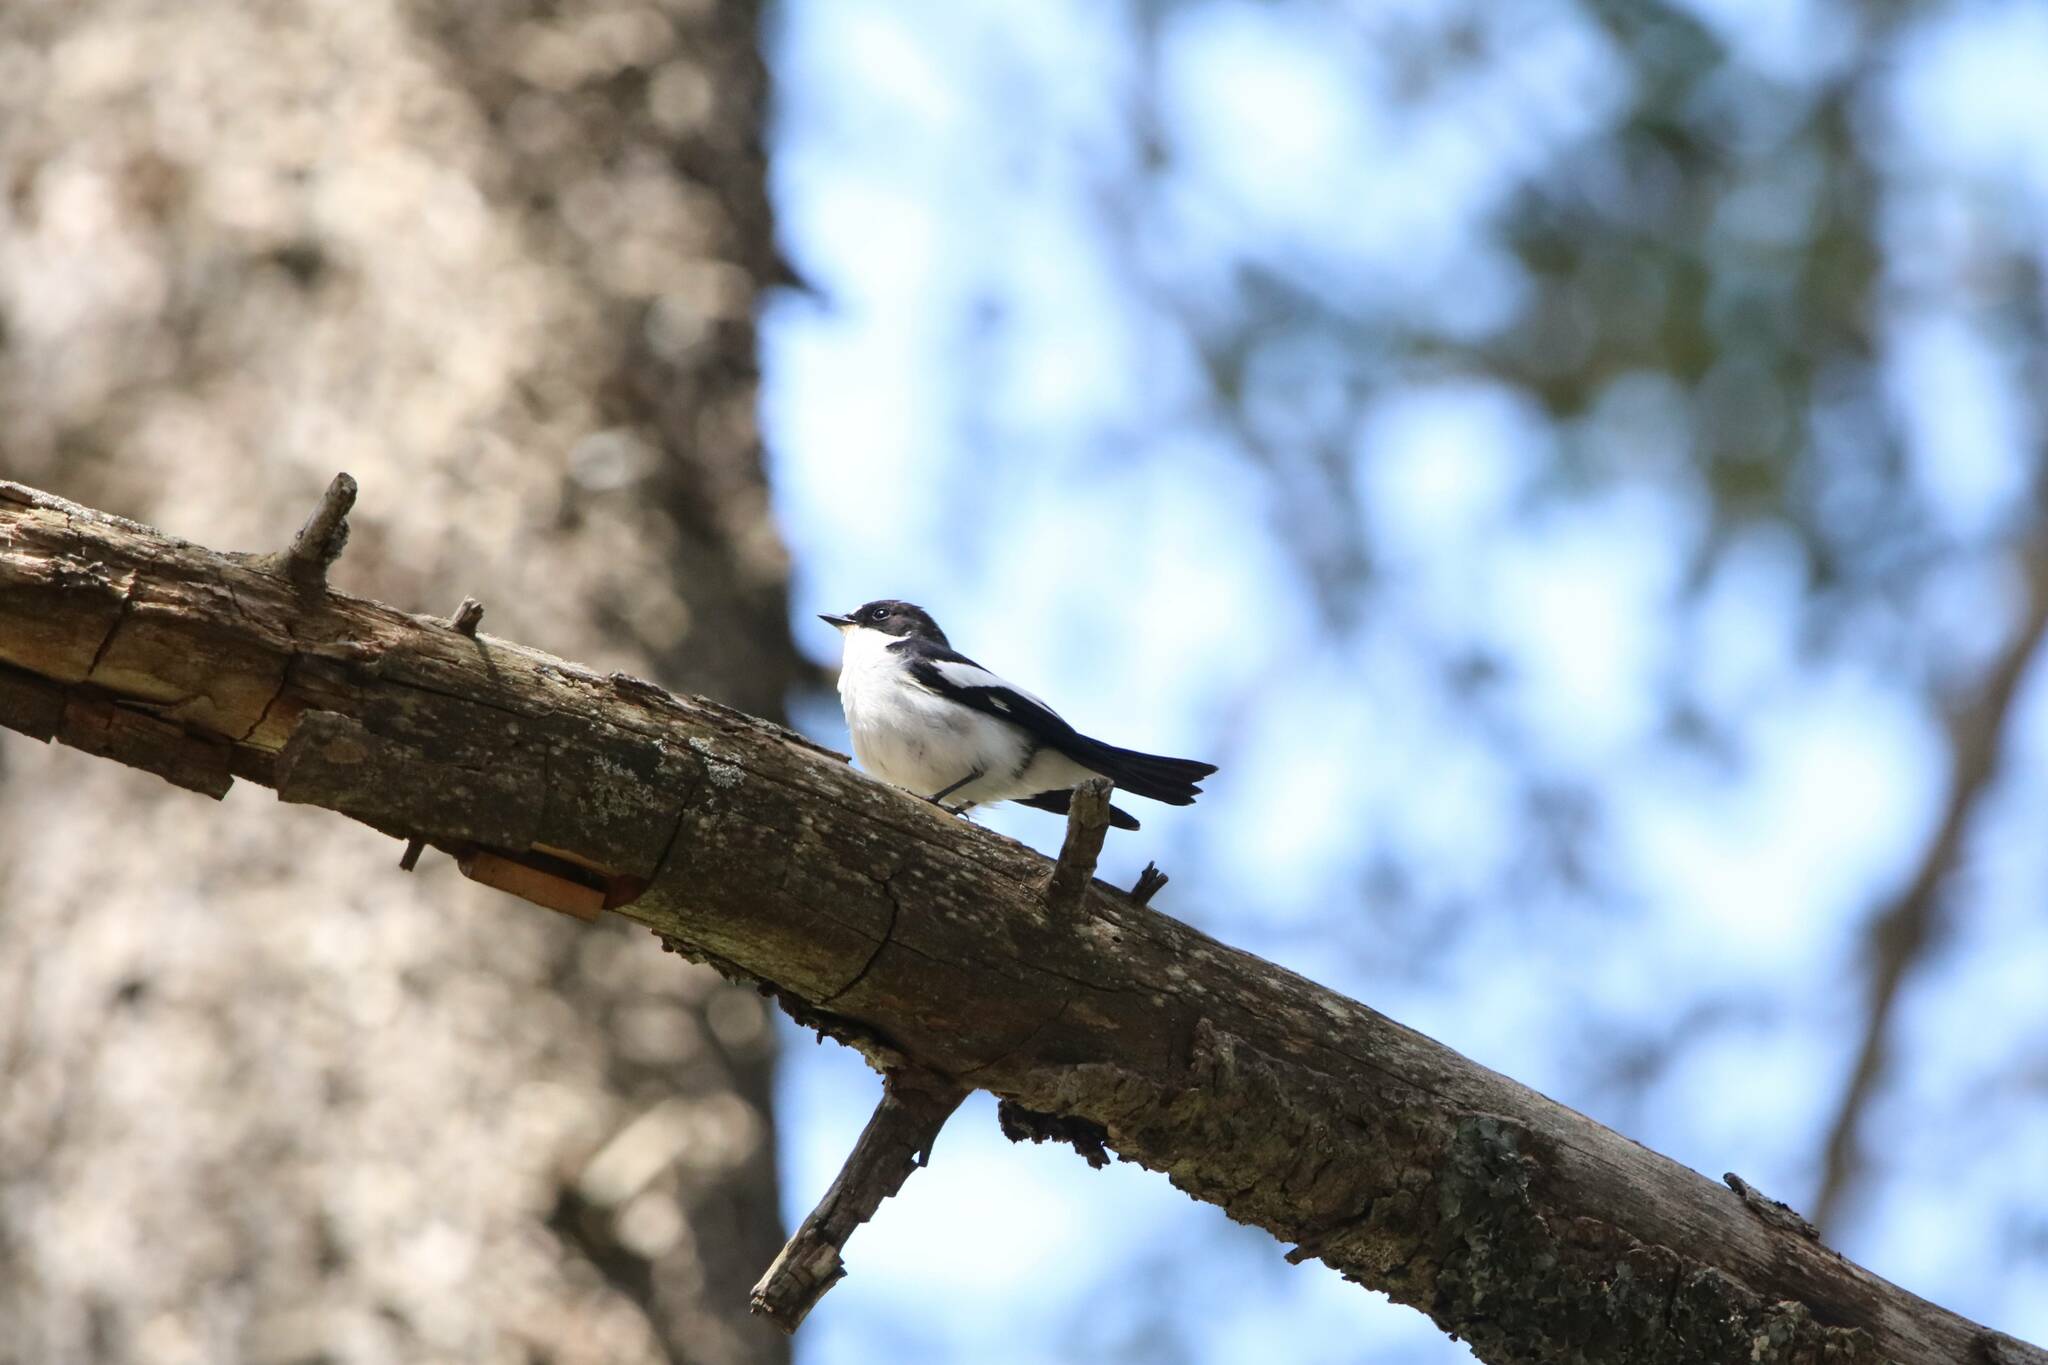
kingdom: Animalia
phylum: Chordata
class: Aves
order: Passeriformes
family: Muscicapidae
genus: Ficedula
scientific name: Ficedula speculigera
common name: Atlas pied flycatcher
